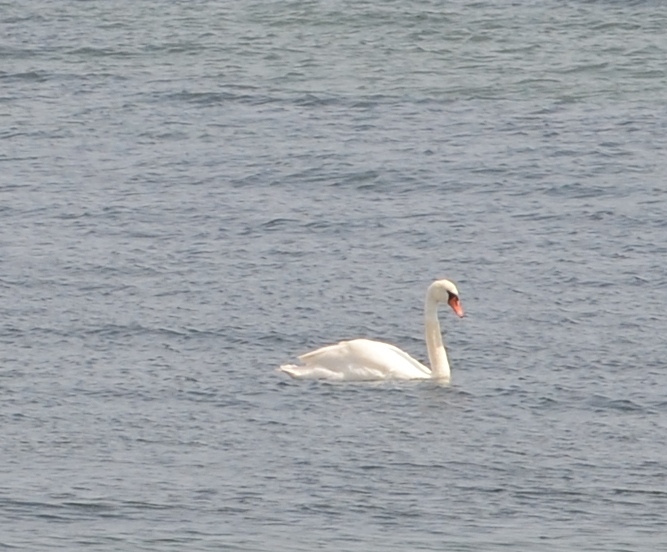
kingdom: Animalia
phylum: Chordata
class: Aves
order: Anseriformes
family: Anatidae
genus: Cygnus
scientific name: Cygnus olor
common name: Mute swan
